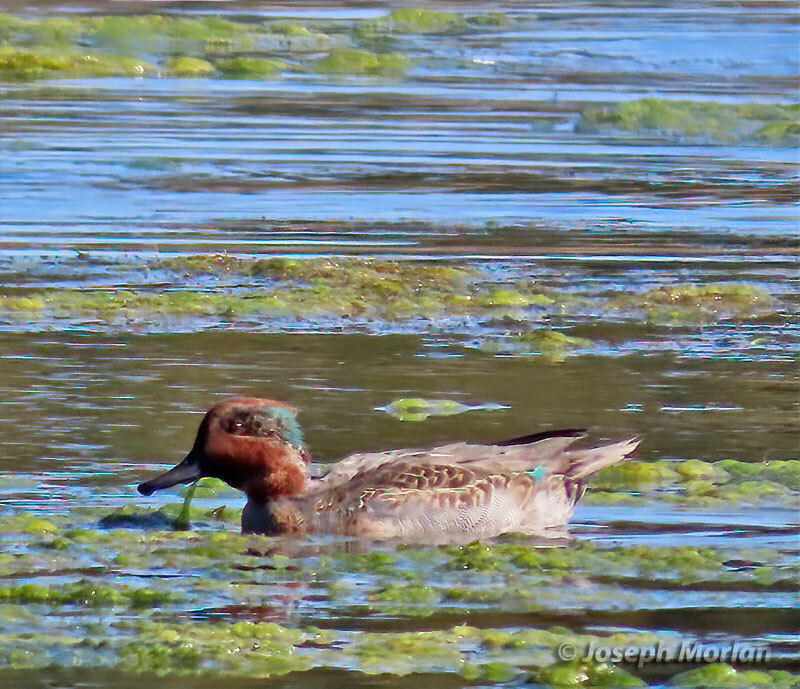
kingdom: Animalia
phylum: Chordata
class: Aves
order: Anseriformes
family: Anatidae
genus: Anas
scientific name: Anas crecca
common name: Eurasian teal
